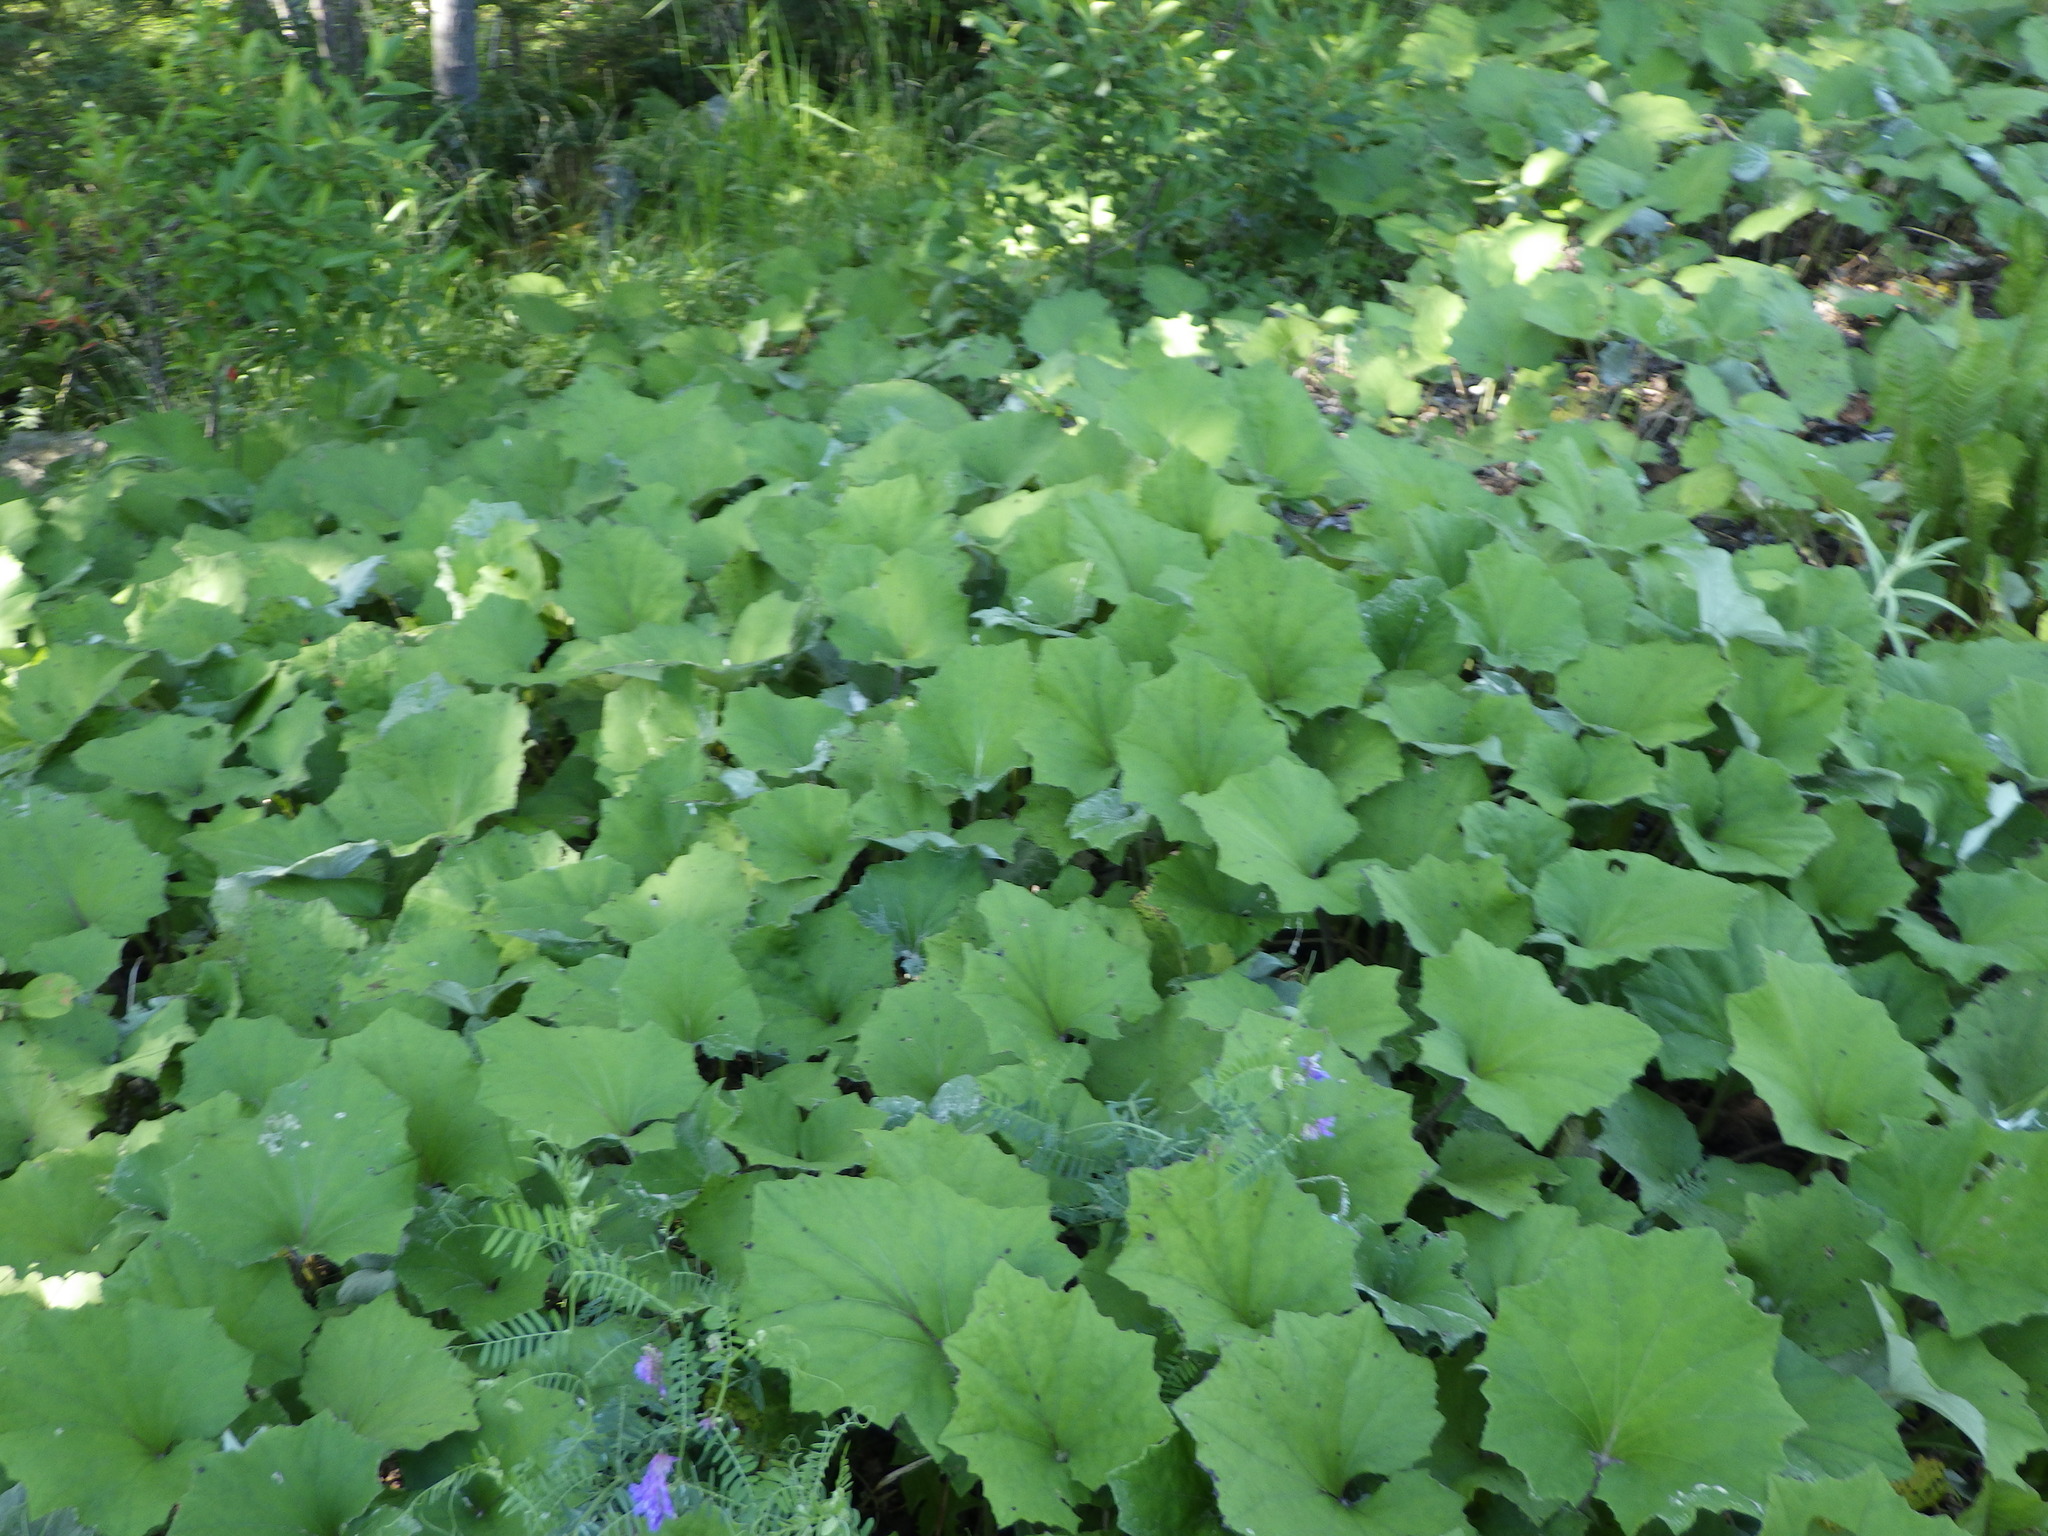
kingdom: Plantae
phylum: Tracheophyta
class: Magnoliopsida
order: Asterales
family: Asteraceae
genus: Tussilago
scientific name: Tussilago farfara
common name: Coltsfoot
